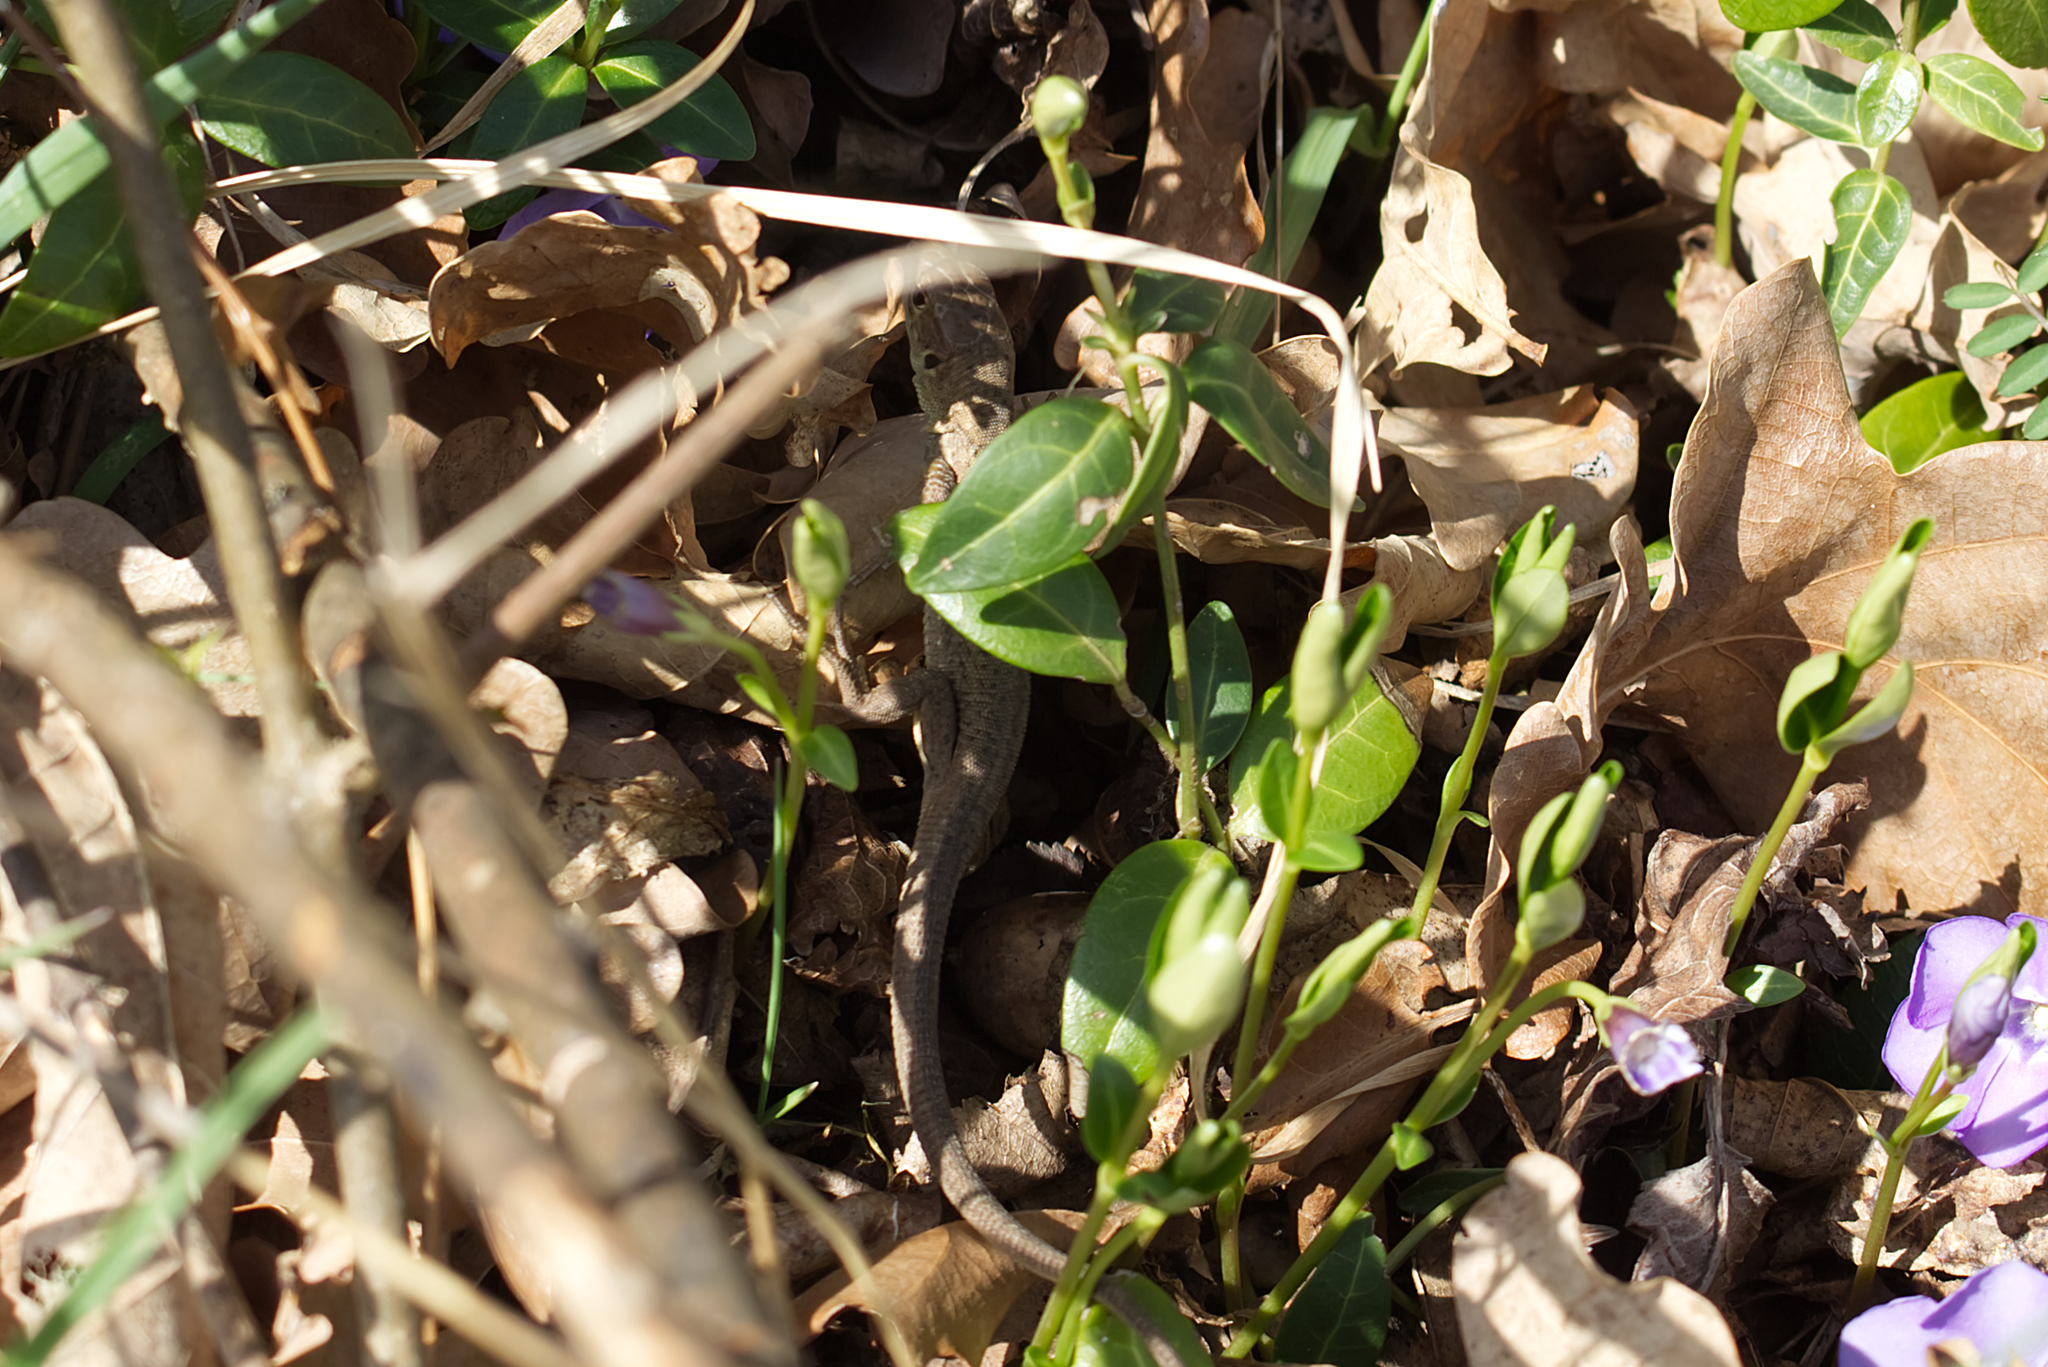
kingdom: Animalia
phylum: Chordata
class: Squamata
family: Lacertidae
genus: Lacerta
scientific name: Lacerta viridis
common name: European green lizard
